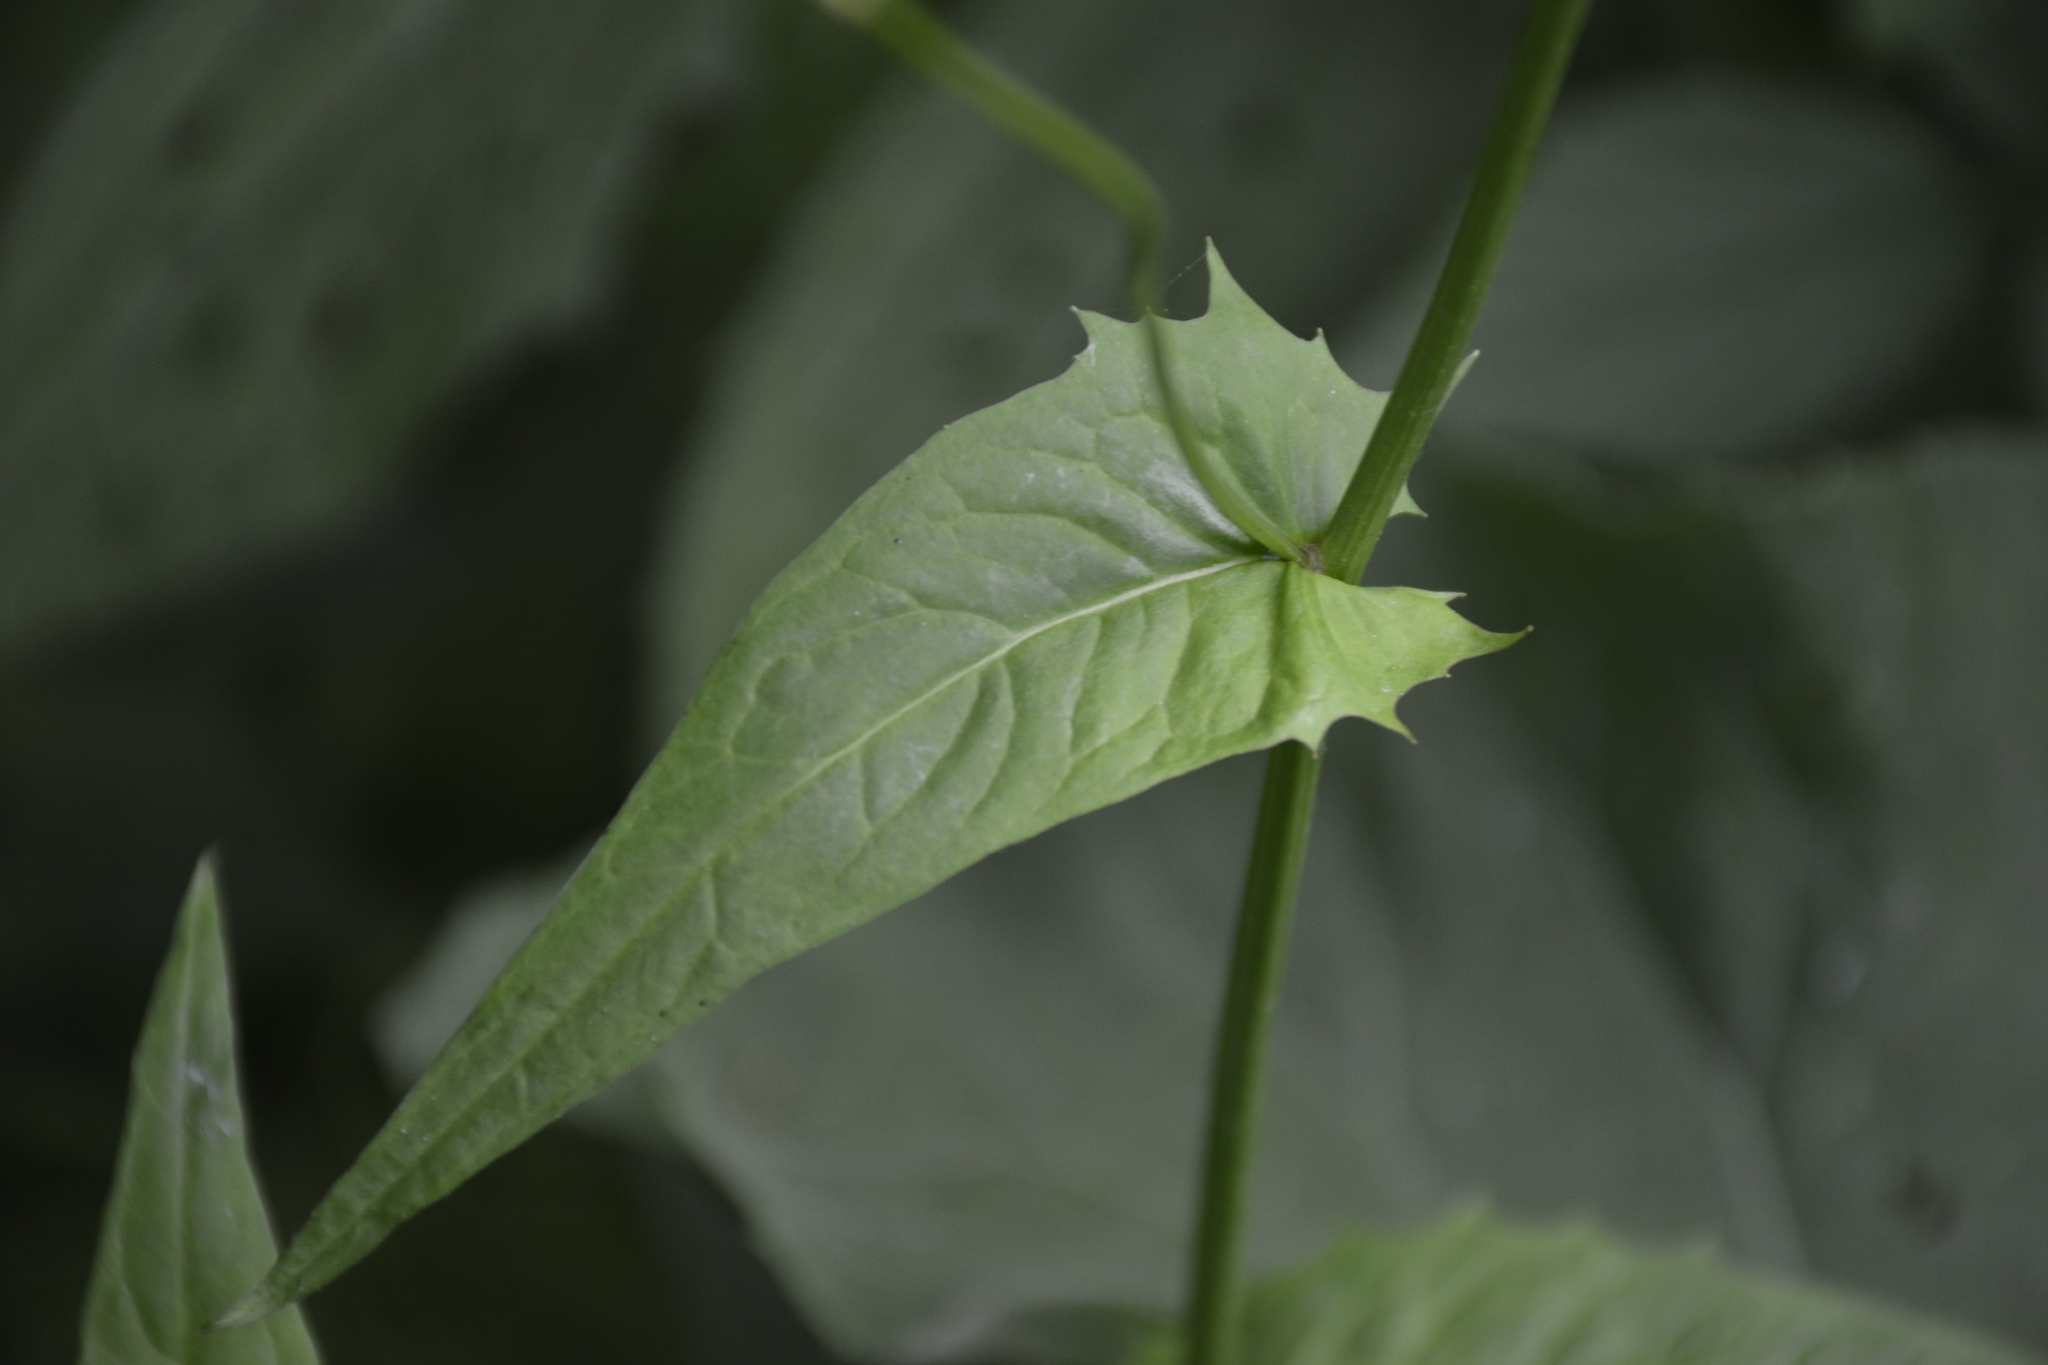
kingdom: Plantae
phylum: Tracheophyta
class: Magnoliopsida
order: Asterales
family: Asteraceae
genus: Crepis
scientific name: Crepis paludosa
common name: Marsh hawk's-beard
